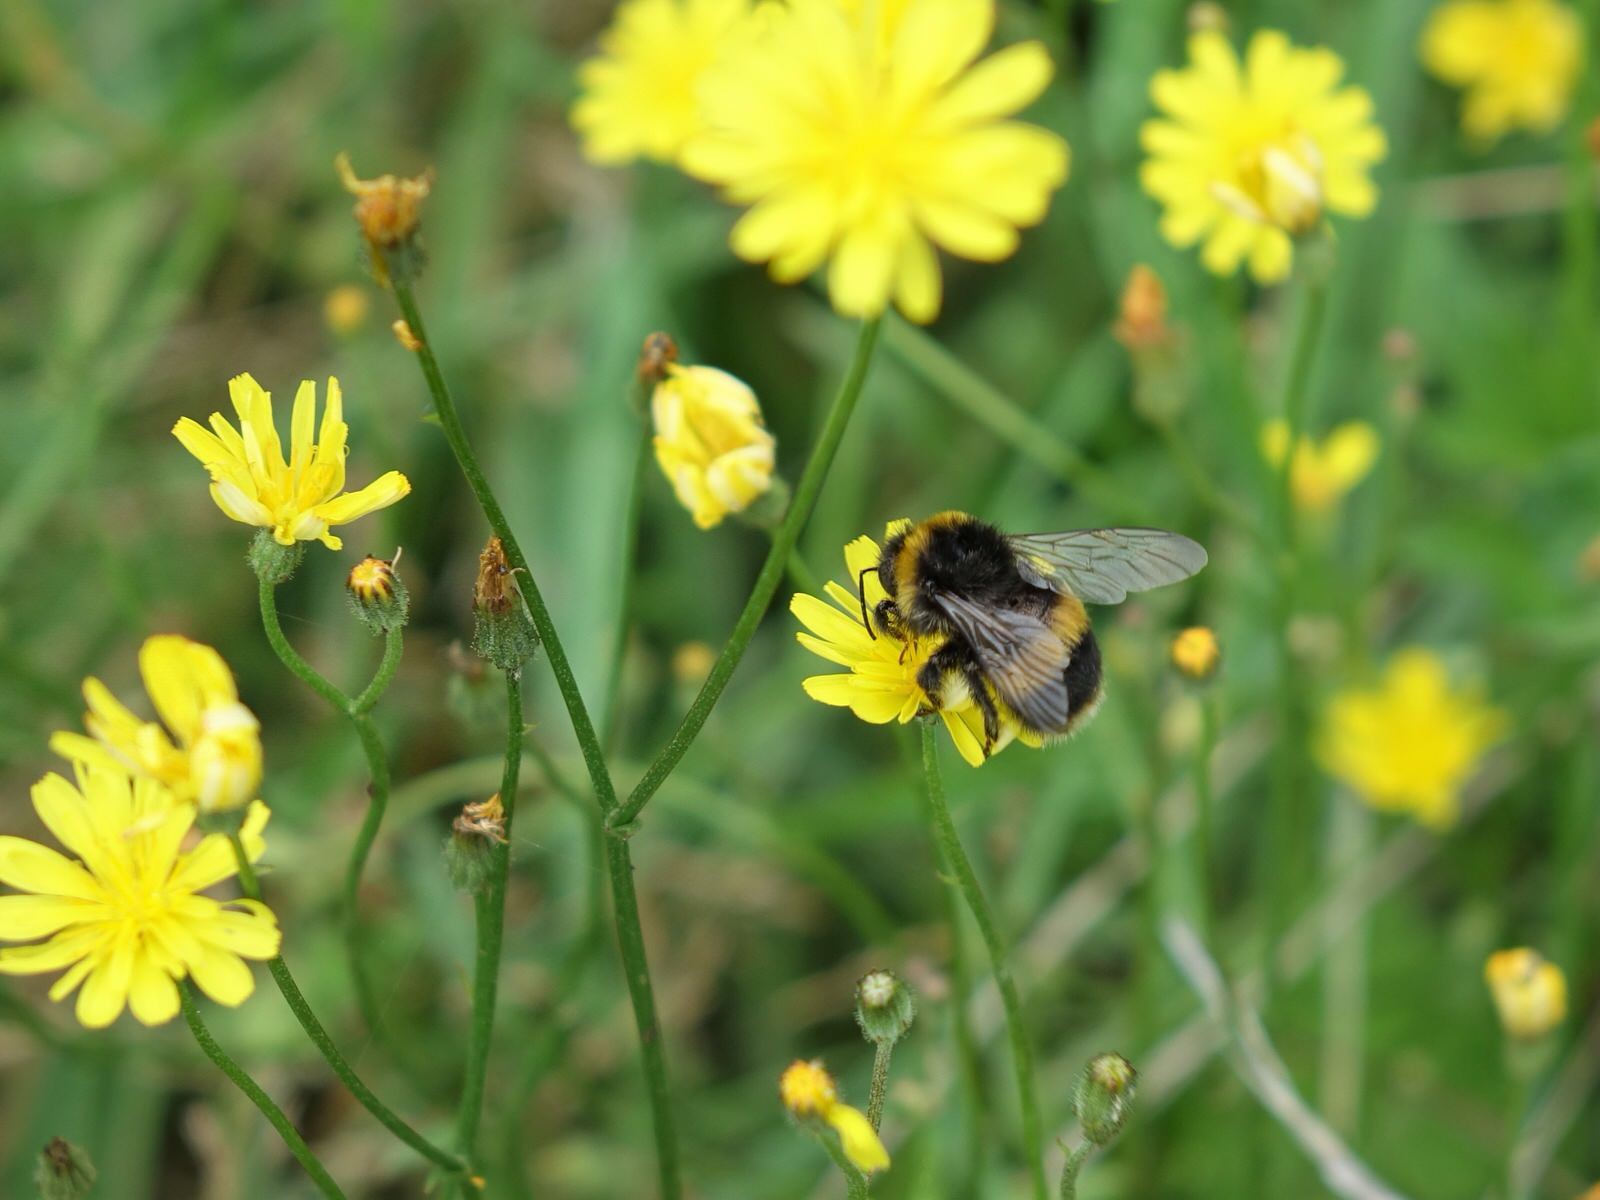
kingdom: Animalia
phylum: Arthropoda
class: Insecta
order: Hymenoptera
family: Apidae
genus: Bombus
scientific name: Bombus terrestris
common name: Buff-tailed bumblebee
